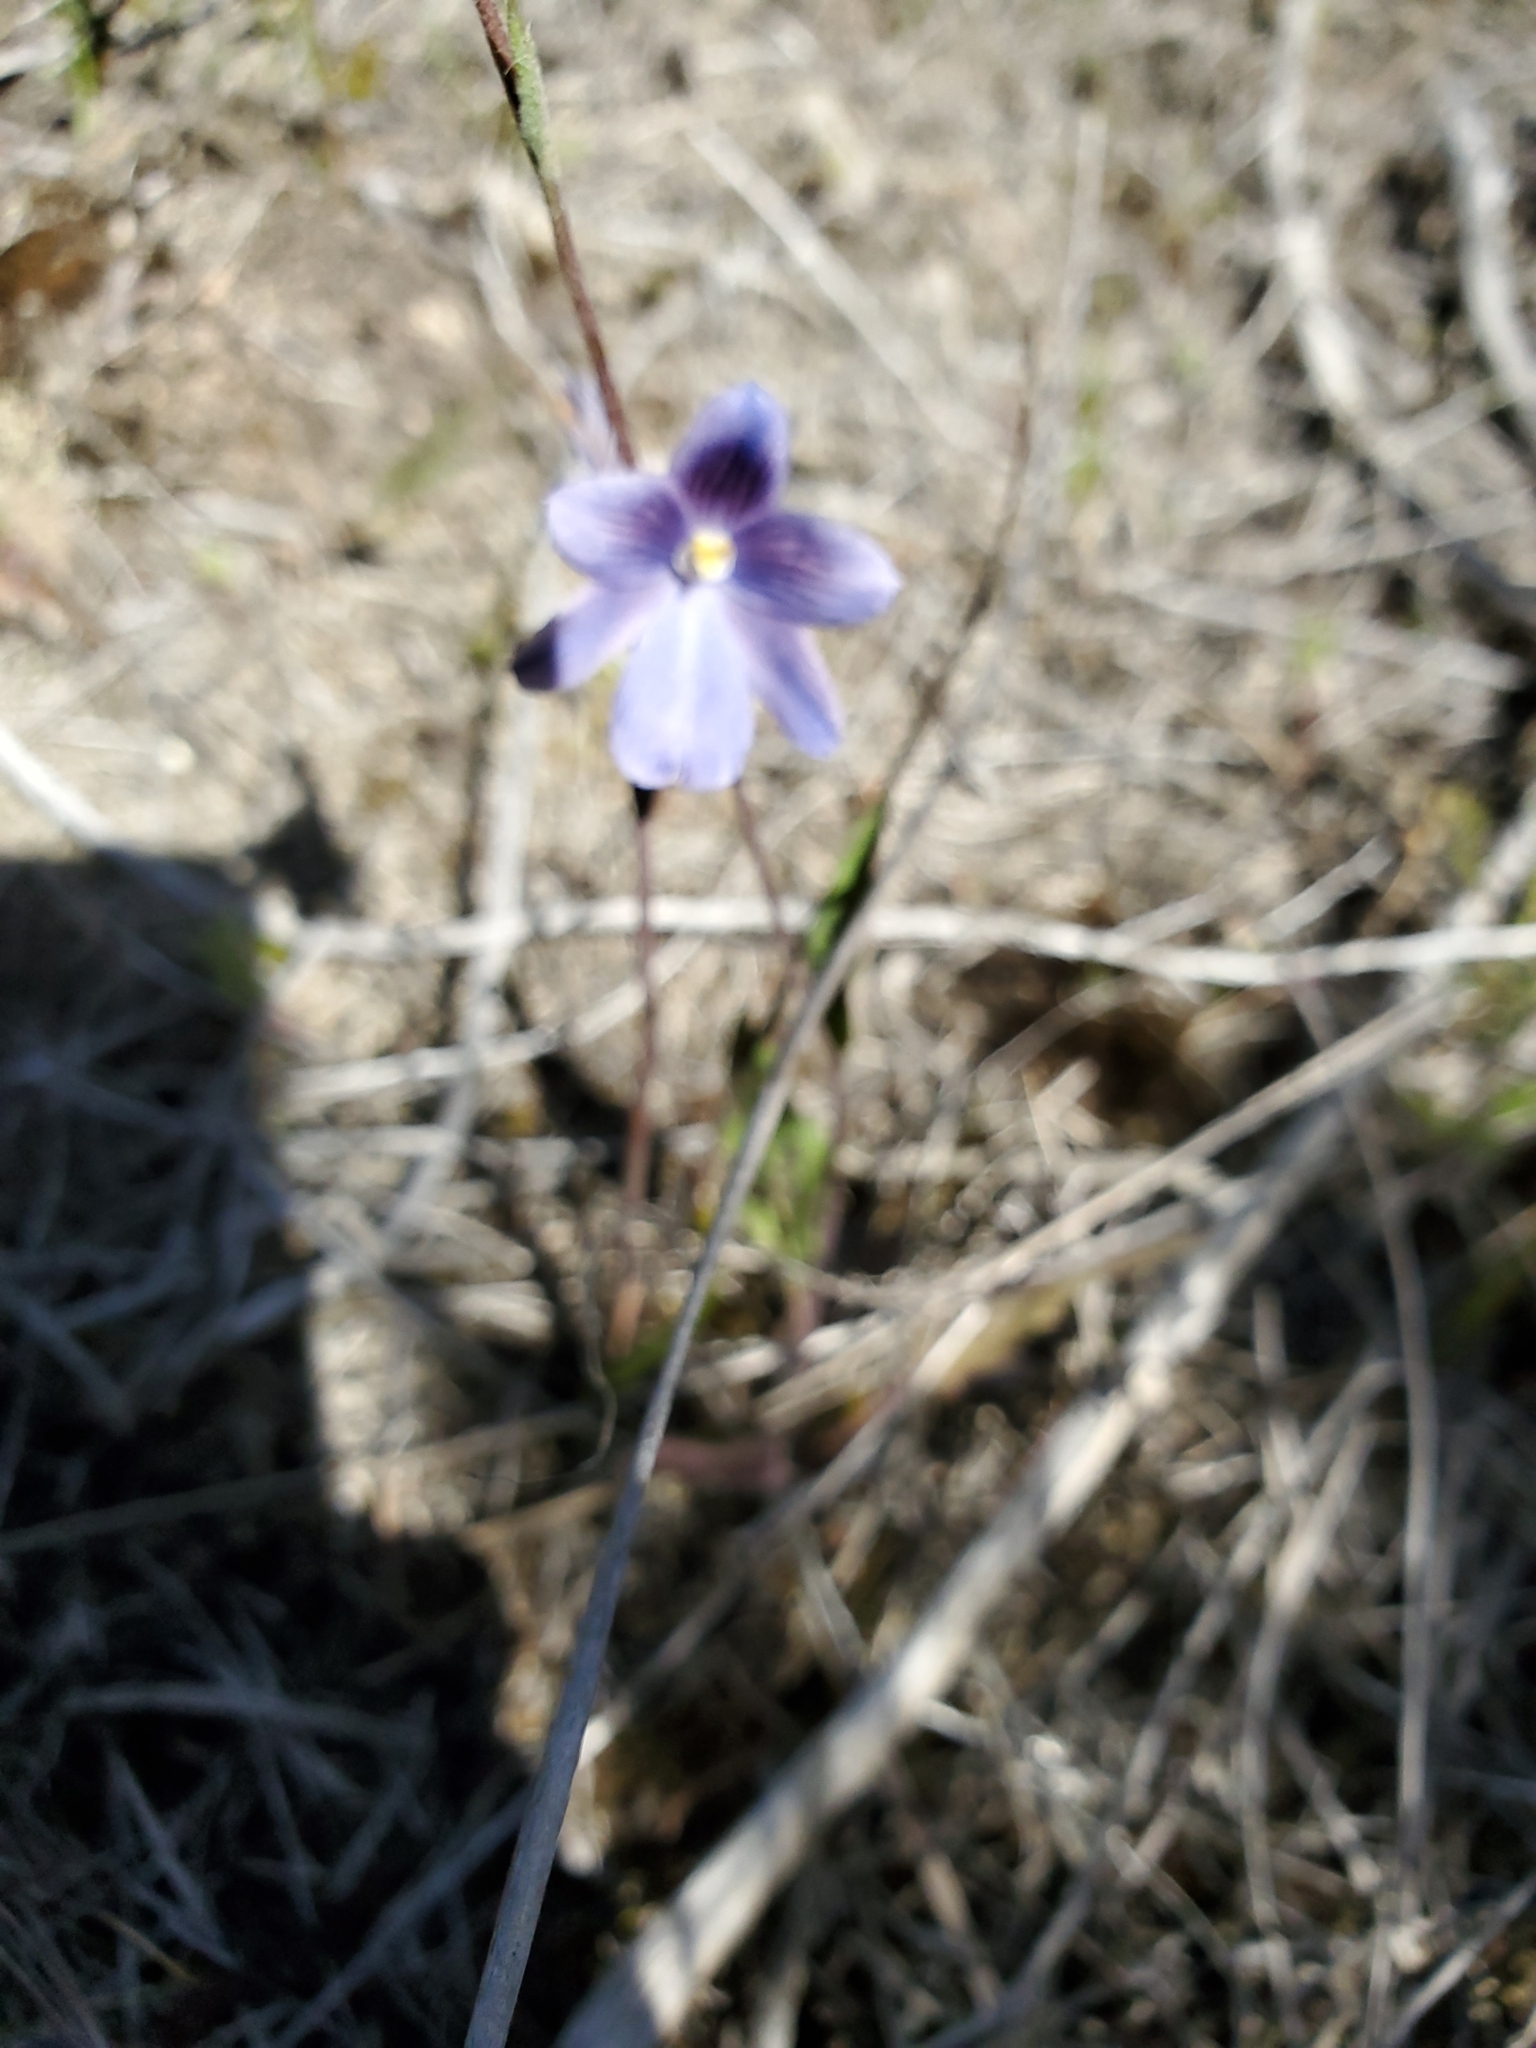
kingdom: Plantae
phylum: Tracheophyta
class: Liliopsida
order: Asparagales
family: Orchidaceae
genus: Thelymitra
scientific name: Thelymitra cyanea
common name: Blue sun-orchid
